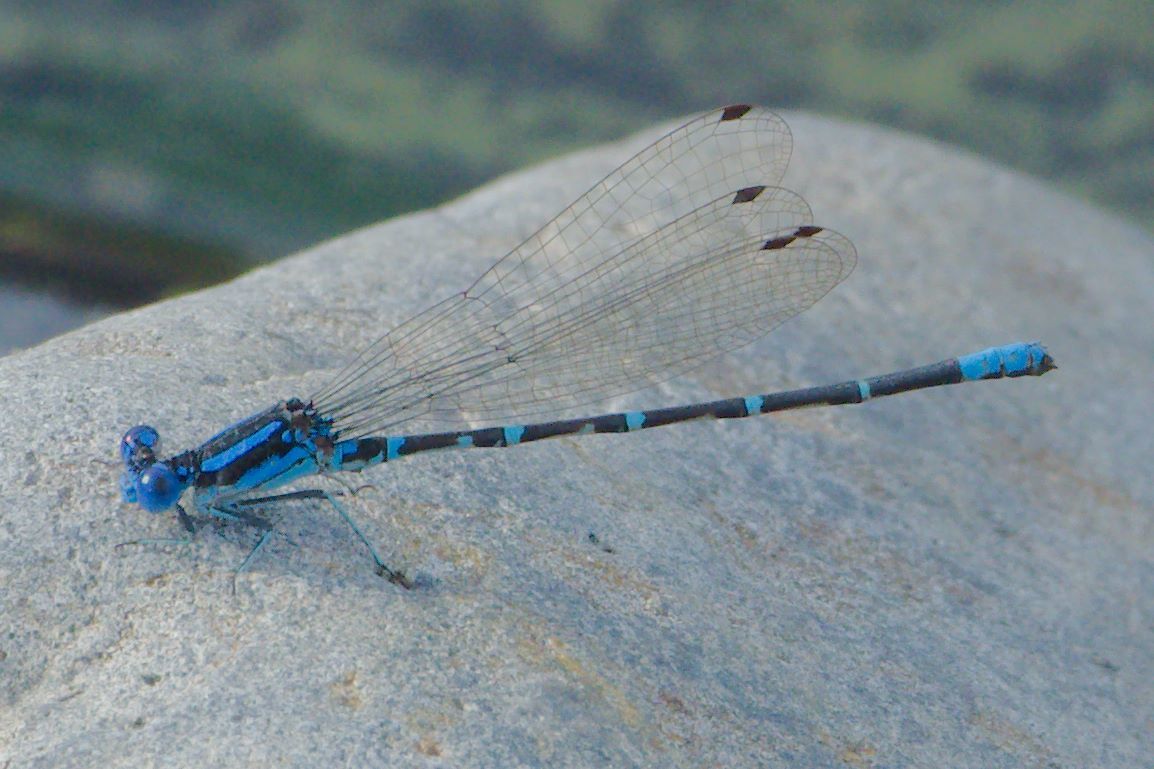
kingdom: Animalia
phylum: Arthropoda
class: Insecta
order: Odonata
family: Coenagrionidae
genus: Argia
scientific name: Argia sedula
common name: Blue-ringed dancer
